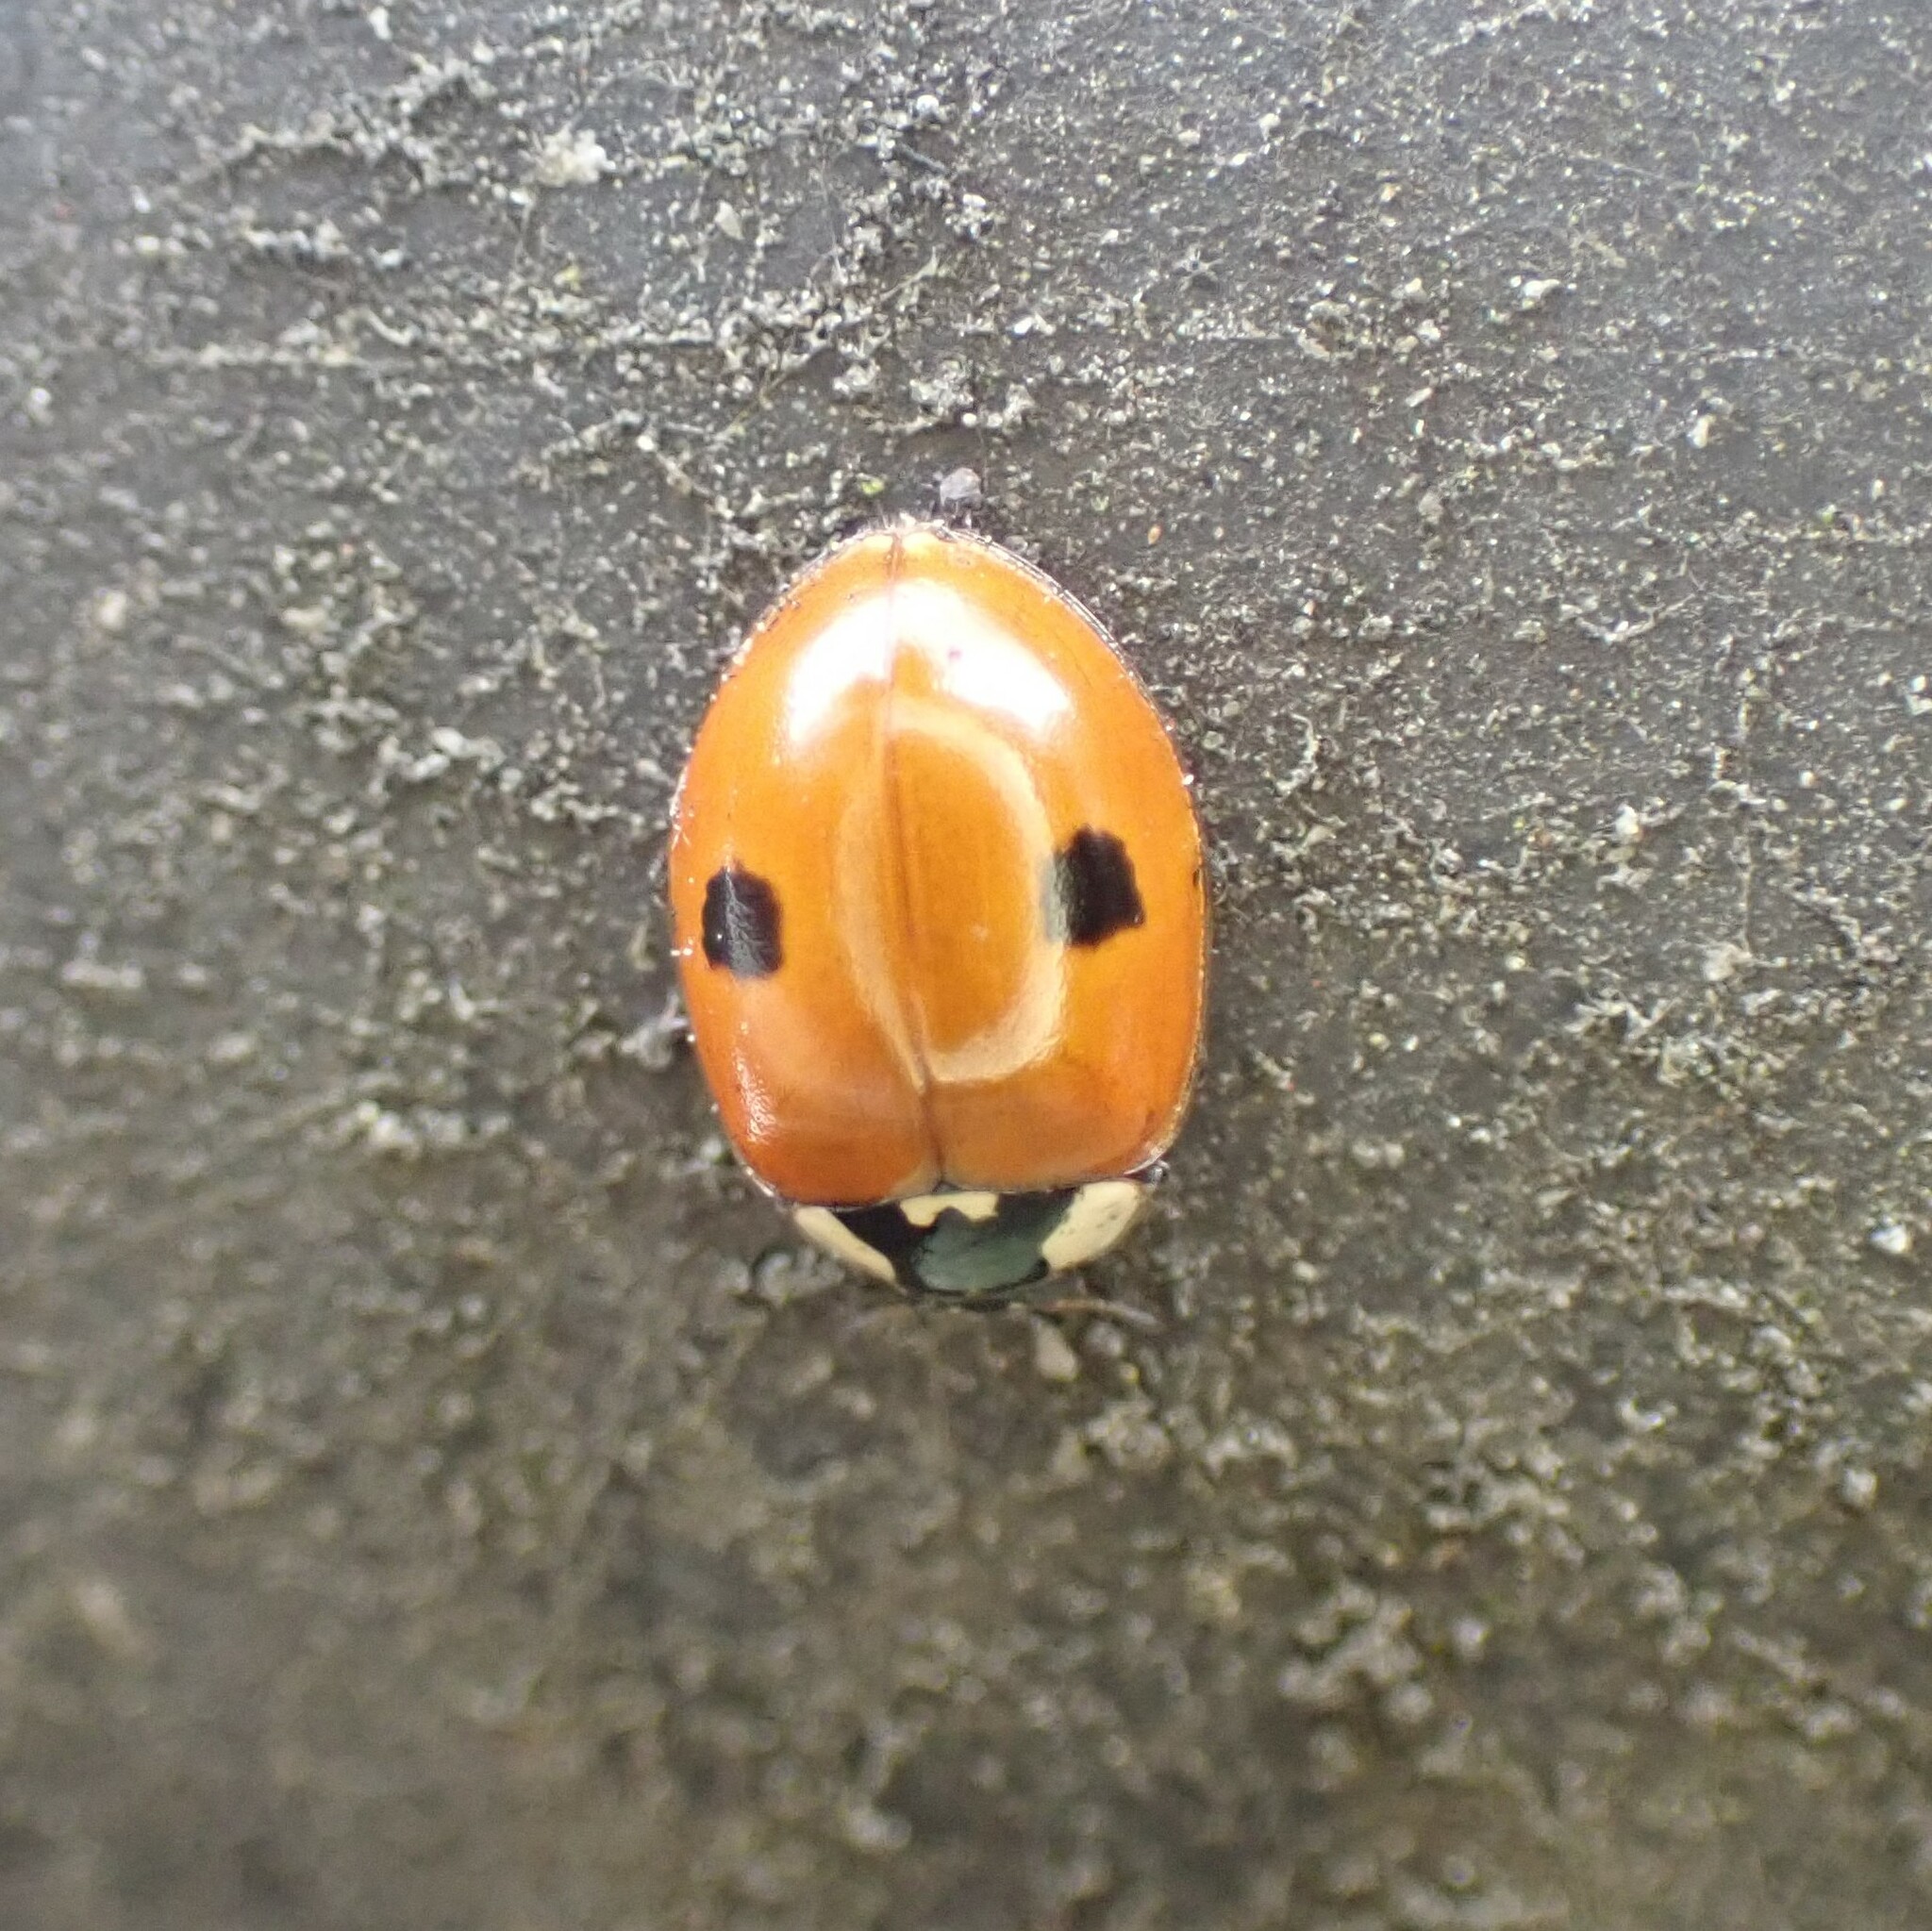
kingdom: Animalia
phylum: Arthropoda
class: Insecta
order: Coleoptera
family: Coccinellidae
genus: Adalia
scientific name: Adalia bipunctata
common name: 2-spot ladybird
